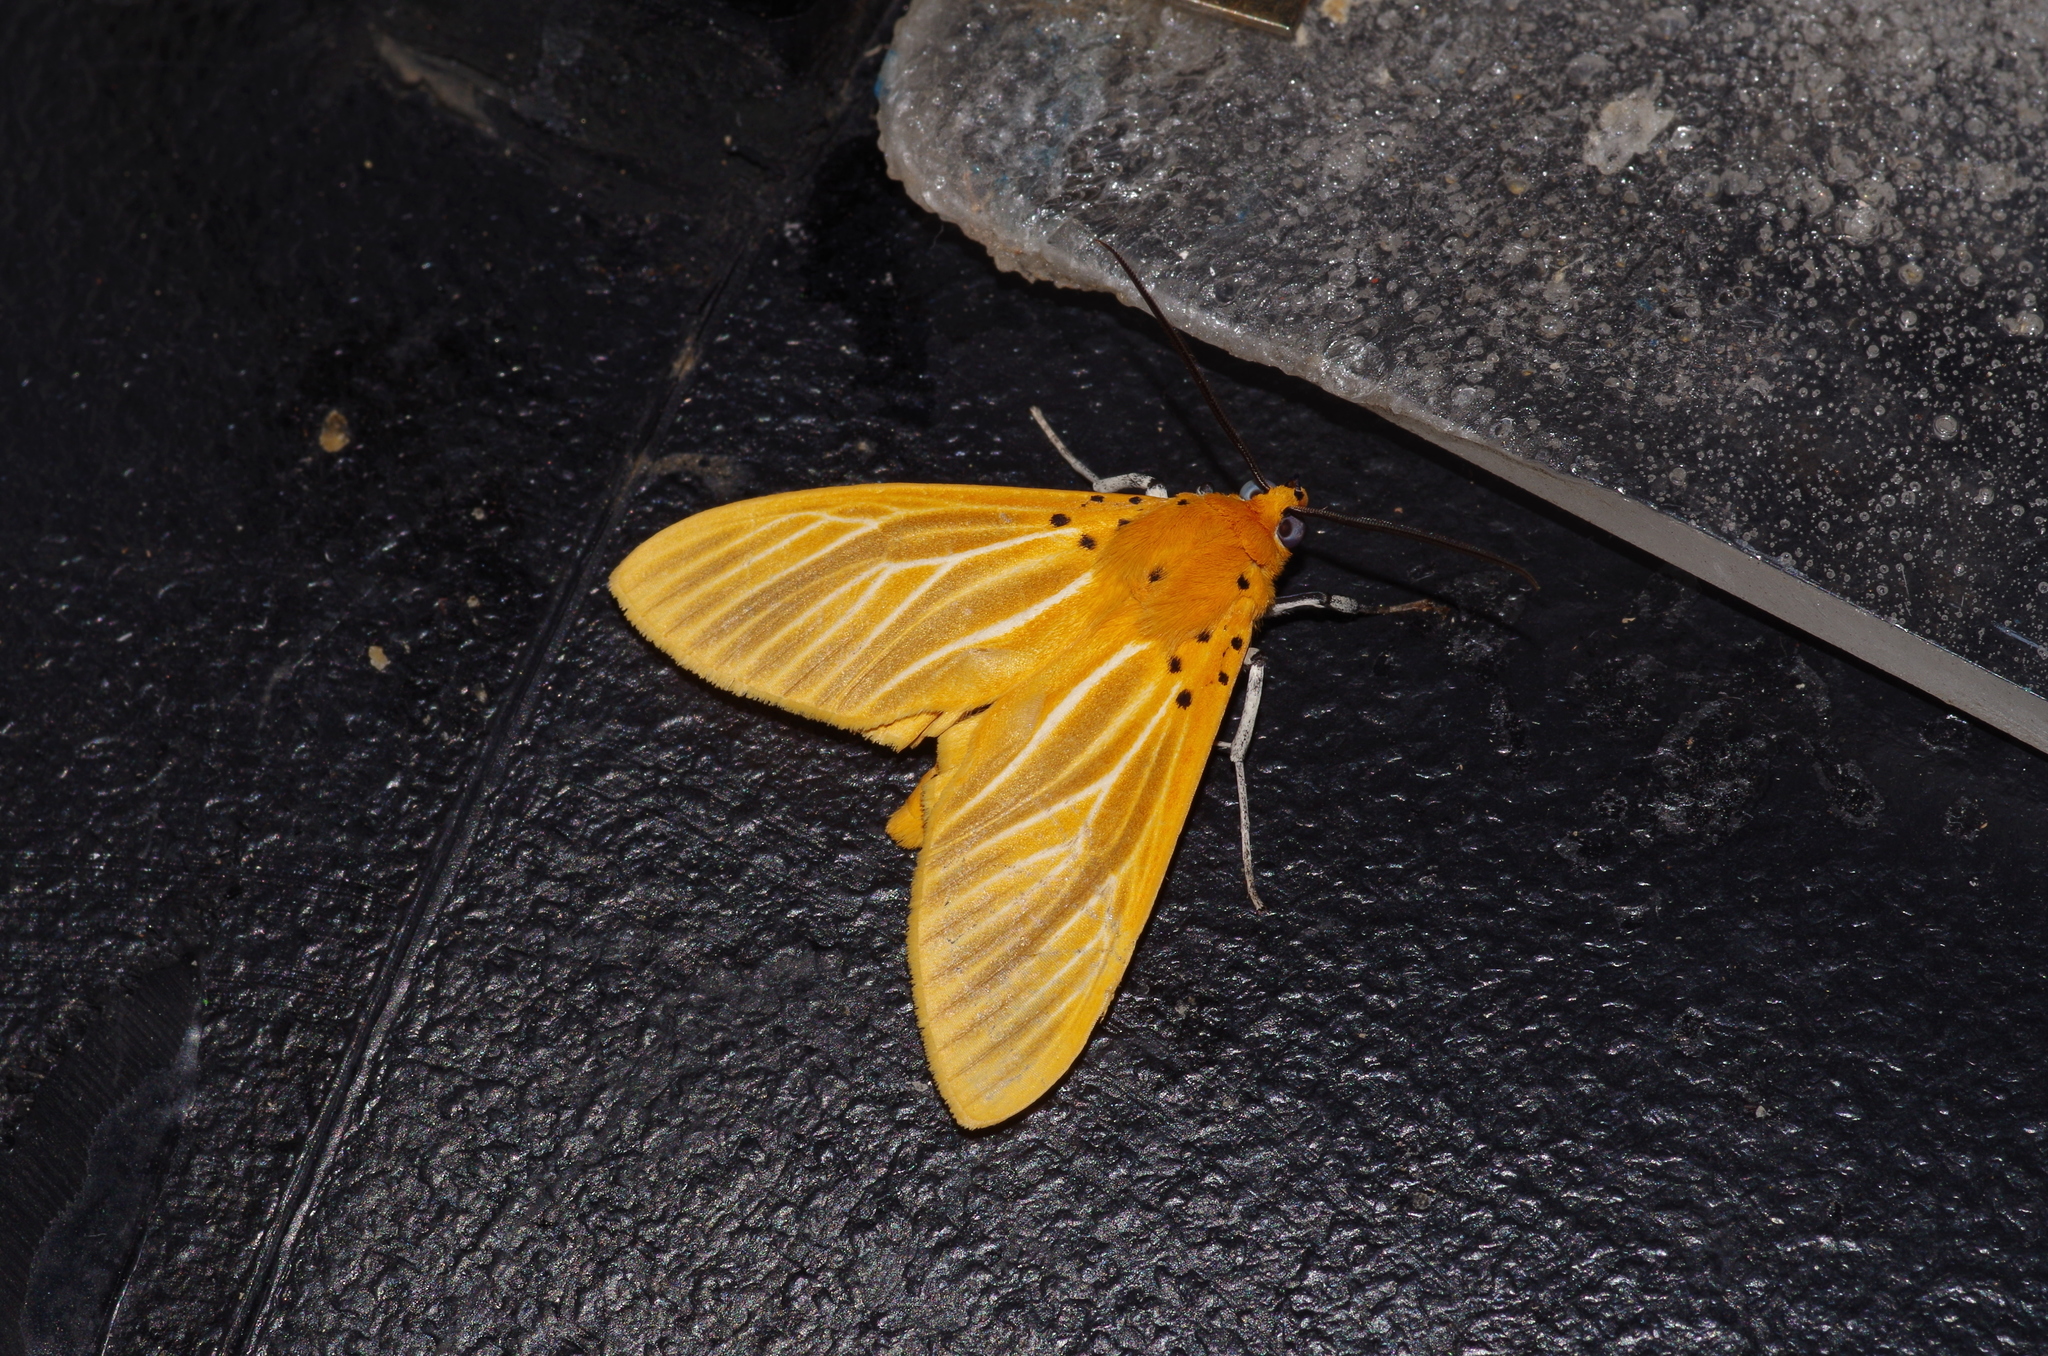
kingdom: Animalia
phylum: Arthropoda
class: Insecta
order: Lepidoptera
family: Erebidae
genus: Asota
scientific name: Asota egens
